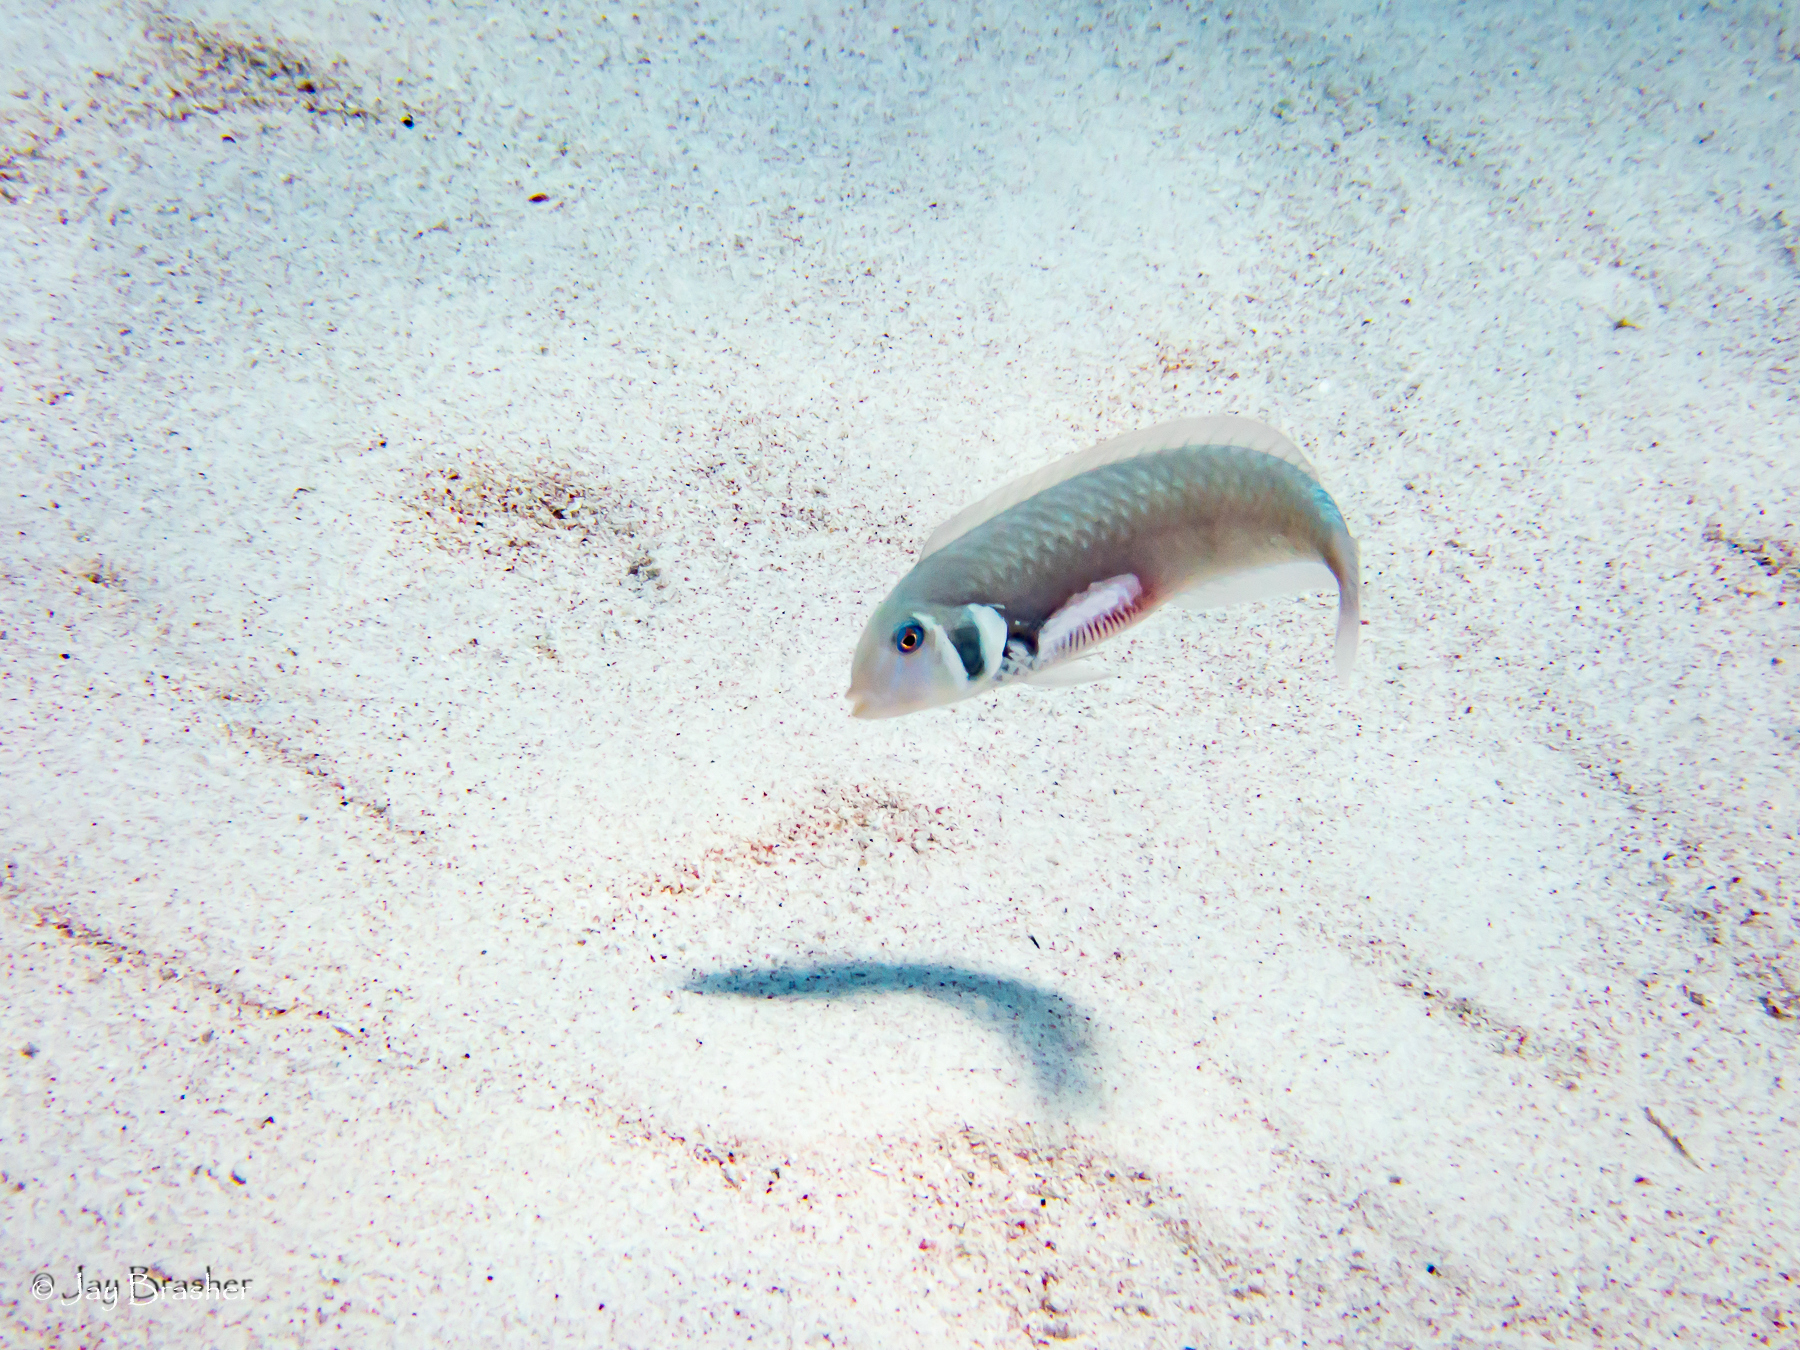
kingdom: Animalia
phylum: Chordata
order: Perciformes
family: Labridae
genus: Xyrichtys
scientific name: Xyrichtys martinicensis
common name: Rosy razorfish
